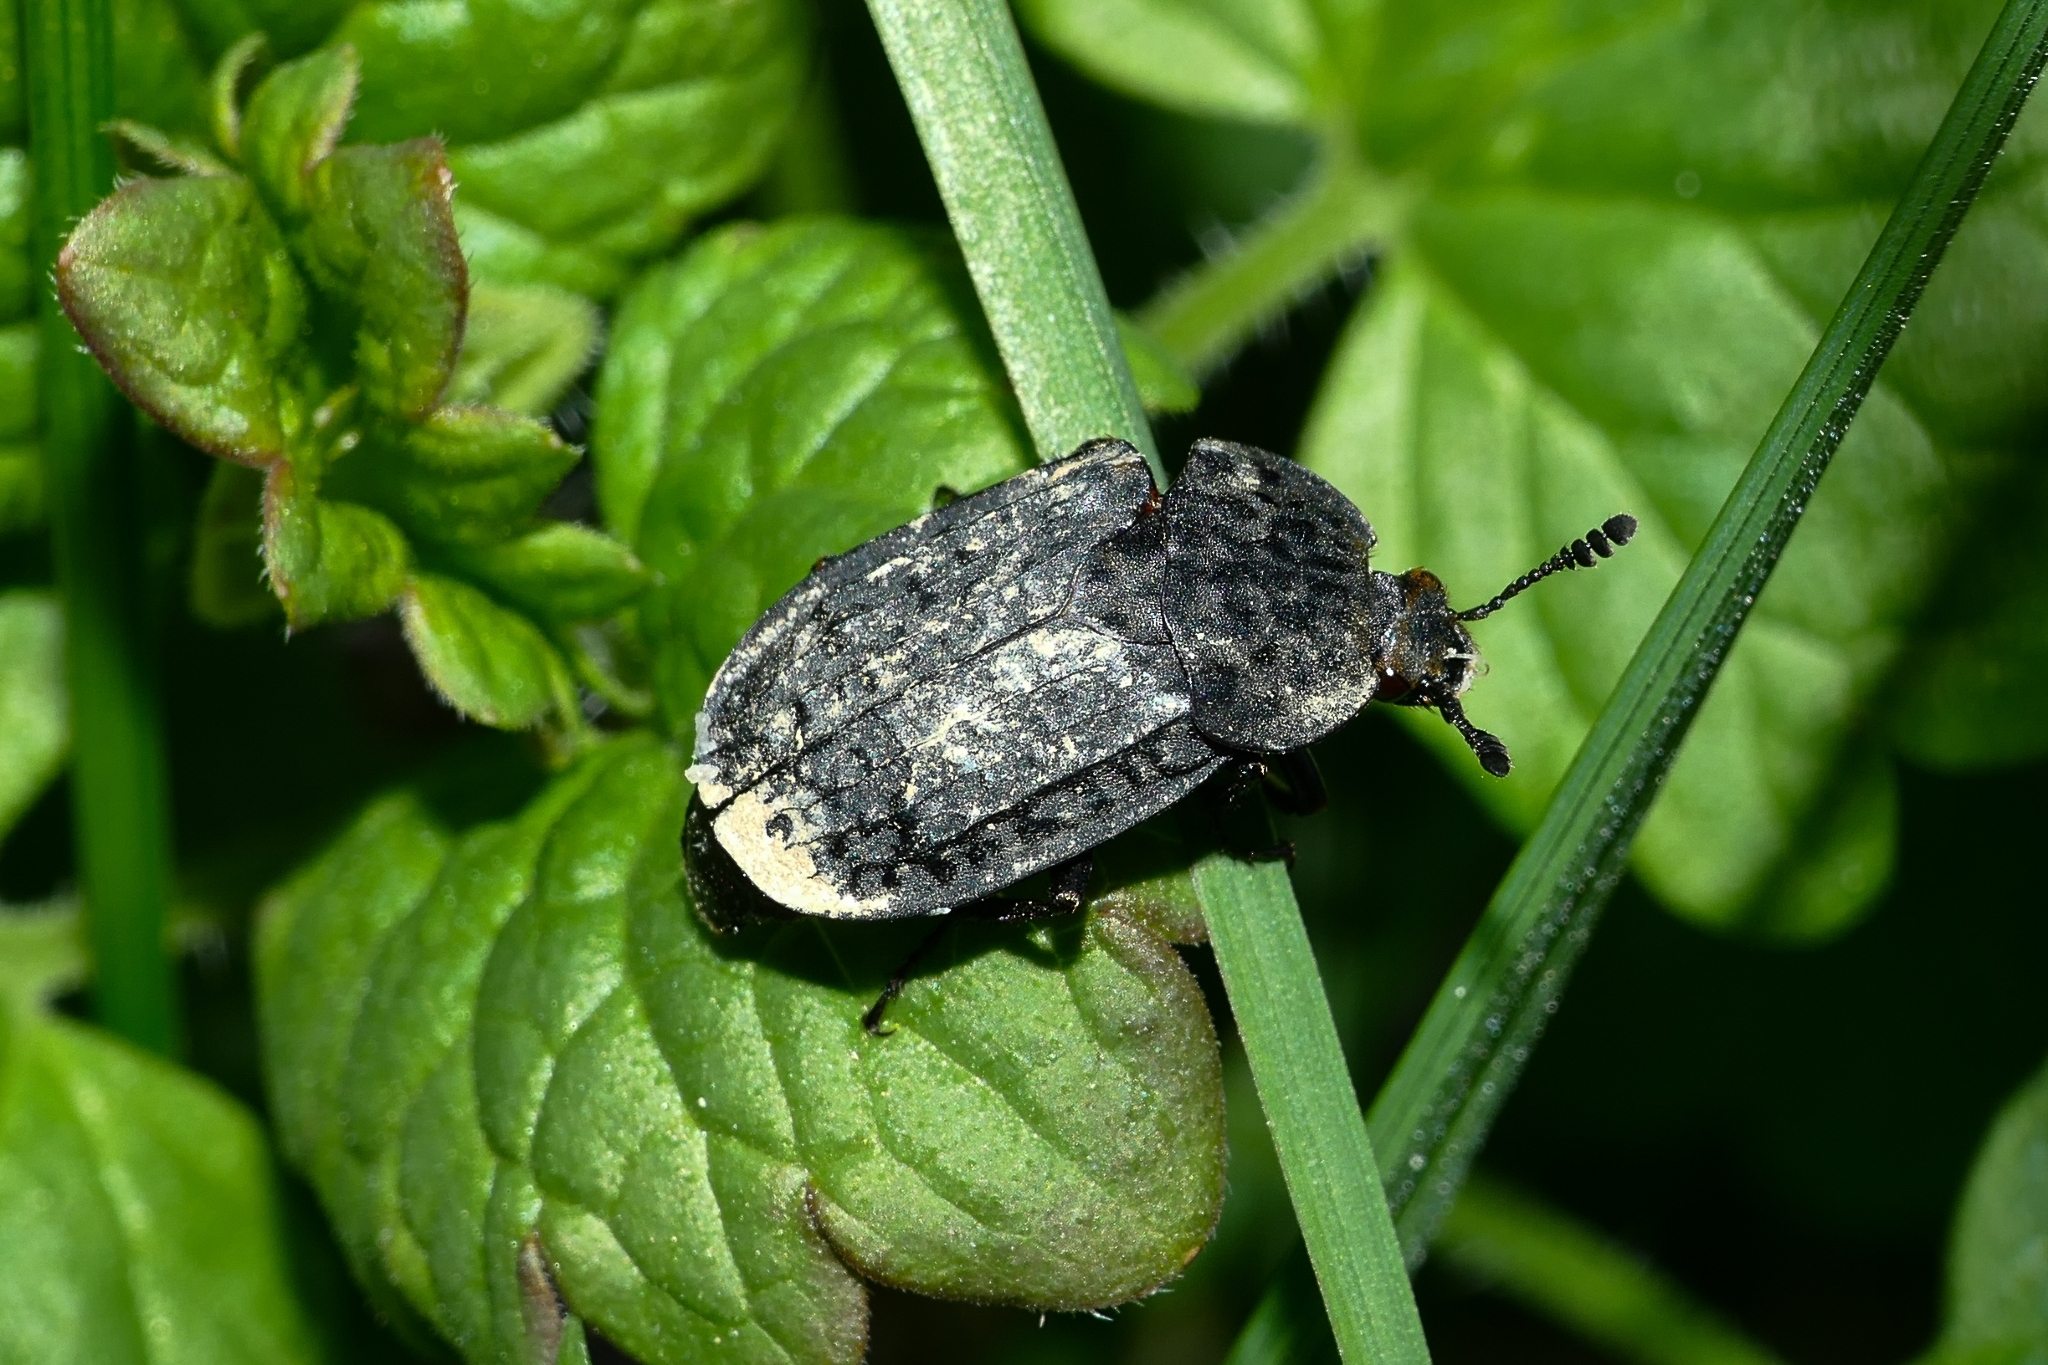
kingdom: Animalia
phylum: Arthropoda
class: Insecta
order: Coleoptera
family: Staphylinidae
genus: Thanatophilus
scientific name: Thanatophilus rugosus
